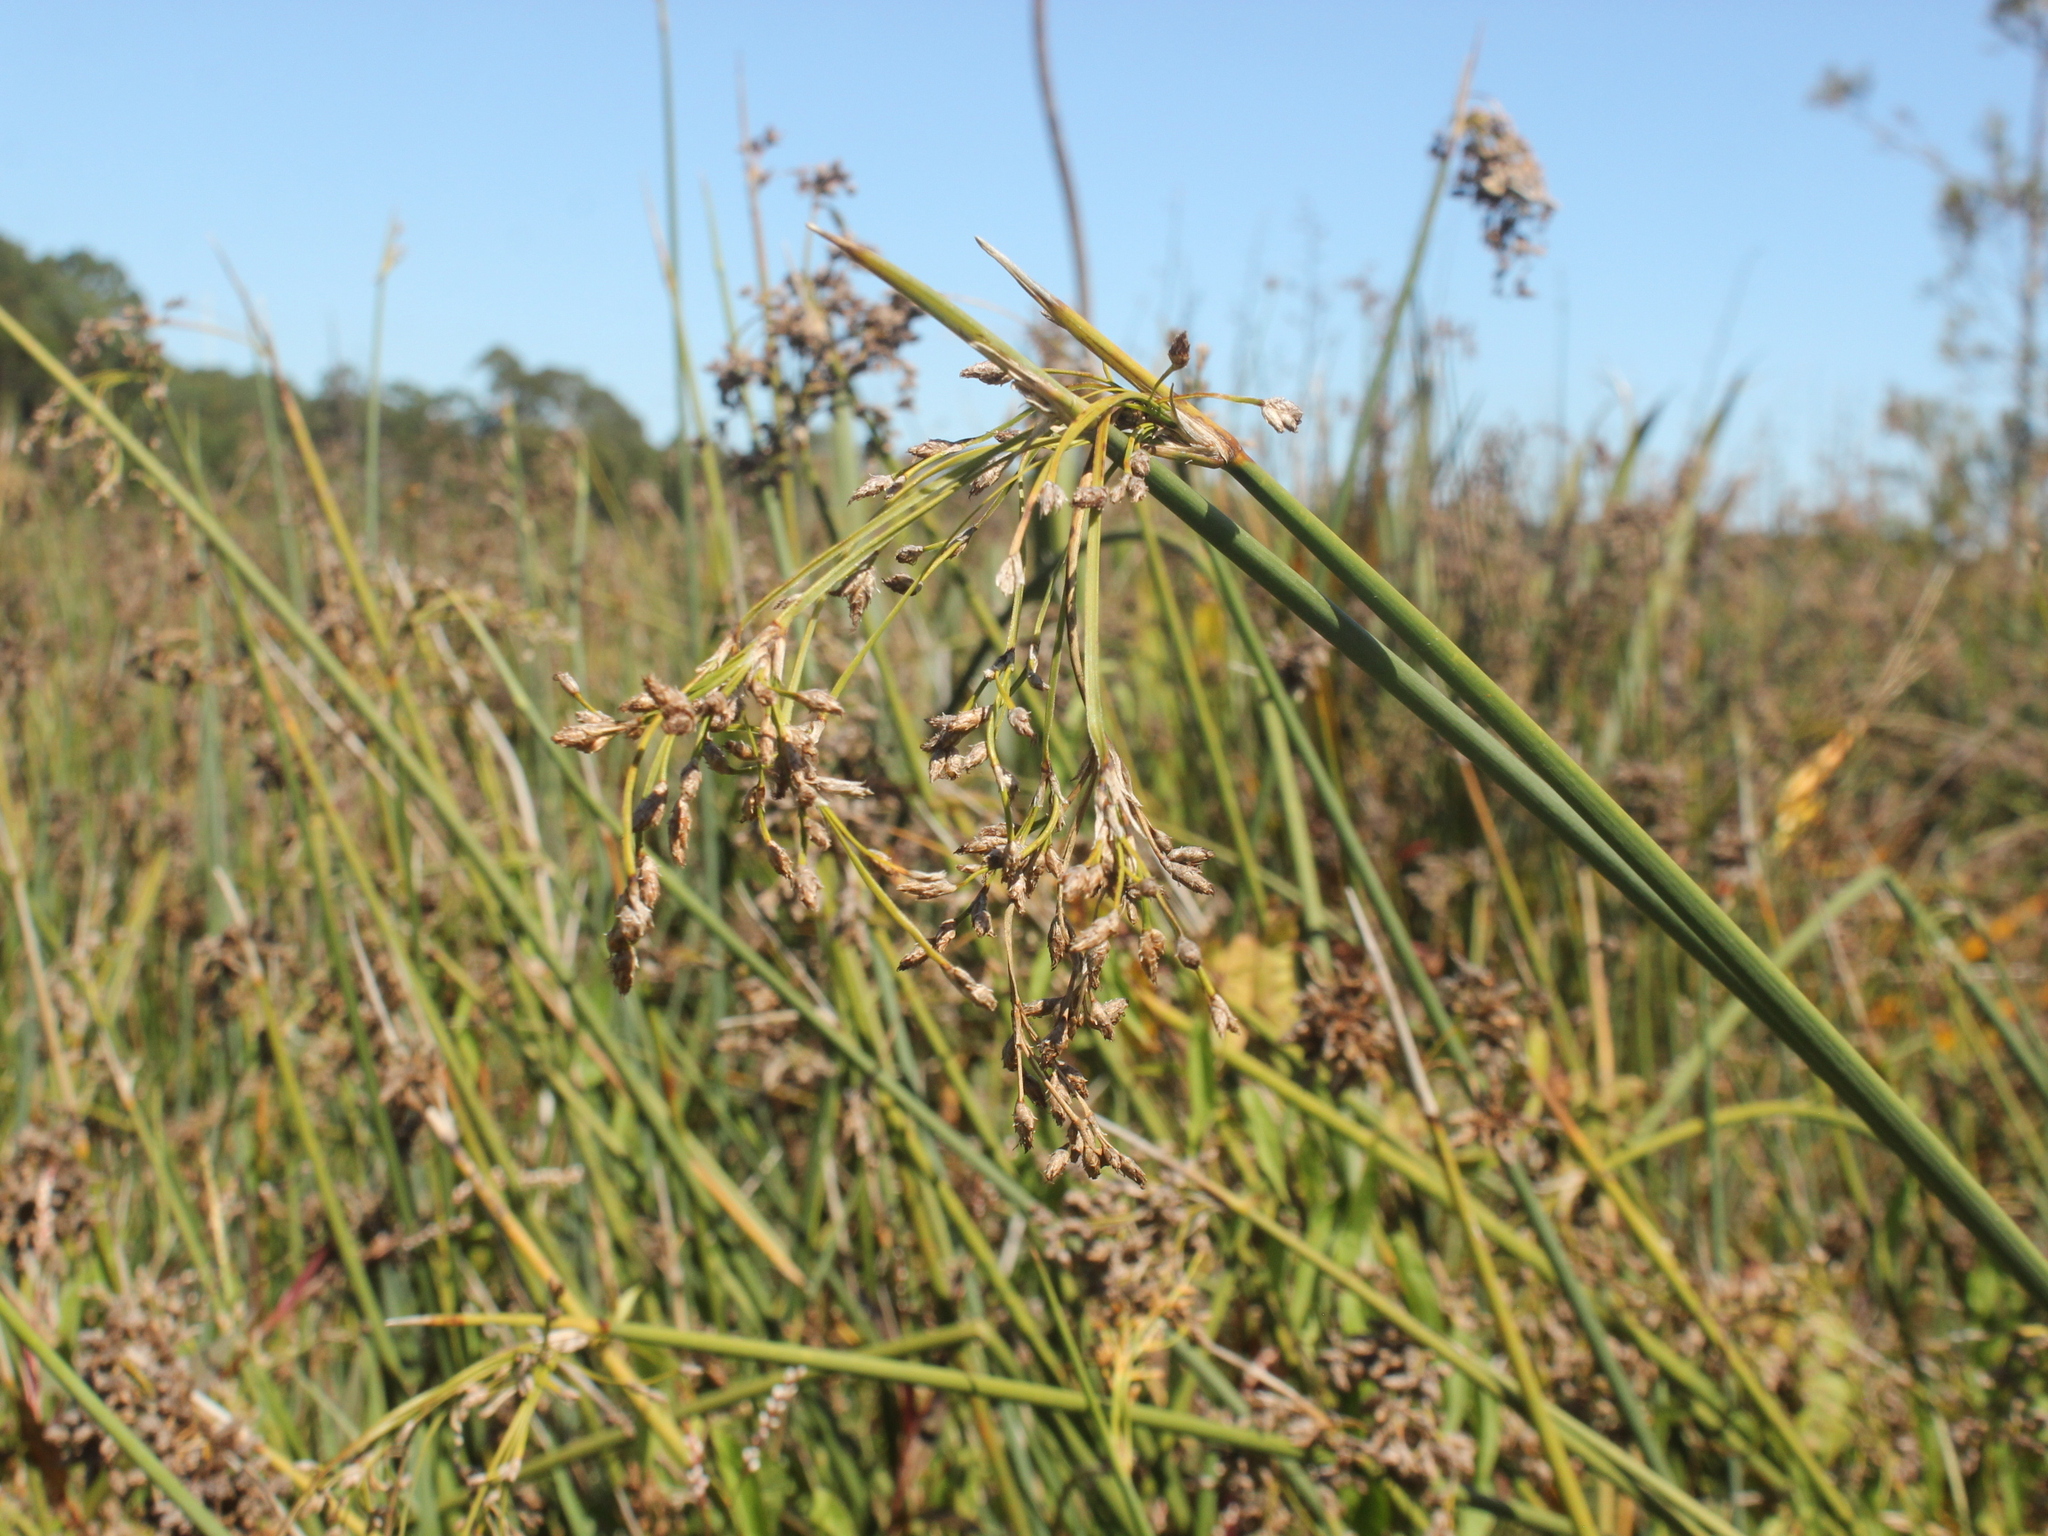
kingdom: Plantae
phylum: Tracheophyta
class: Liliopsida
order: Poales
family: Cyperaceae
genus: Schoenoplectus
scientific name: Schoenoplectus tabernaemontani
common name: Grey club-rush
